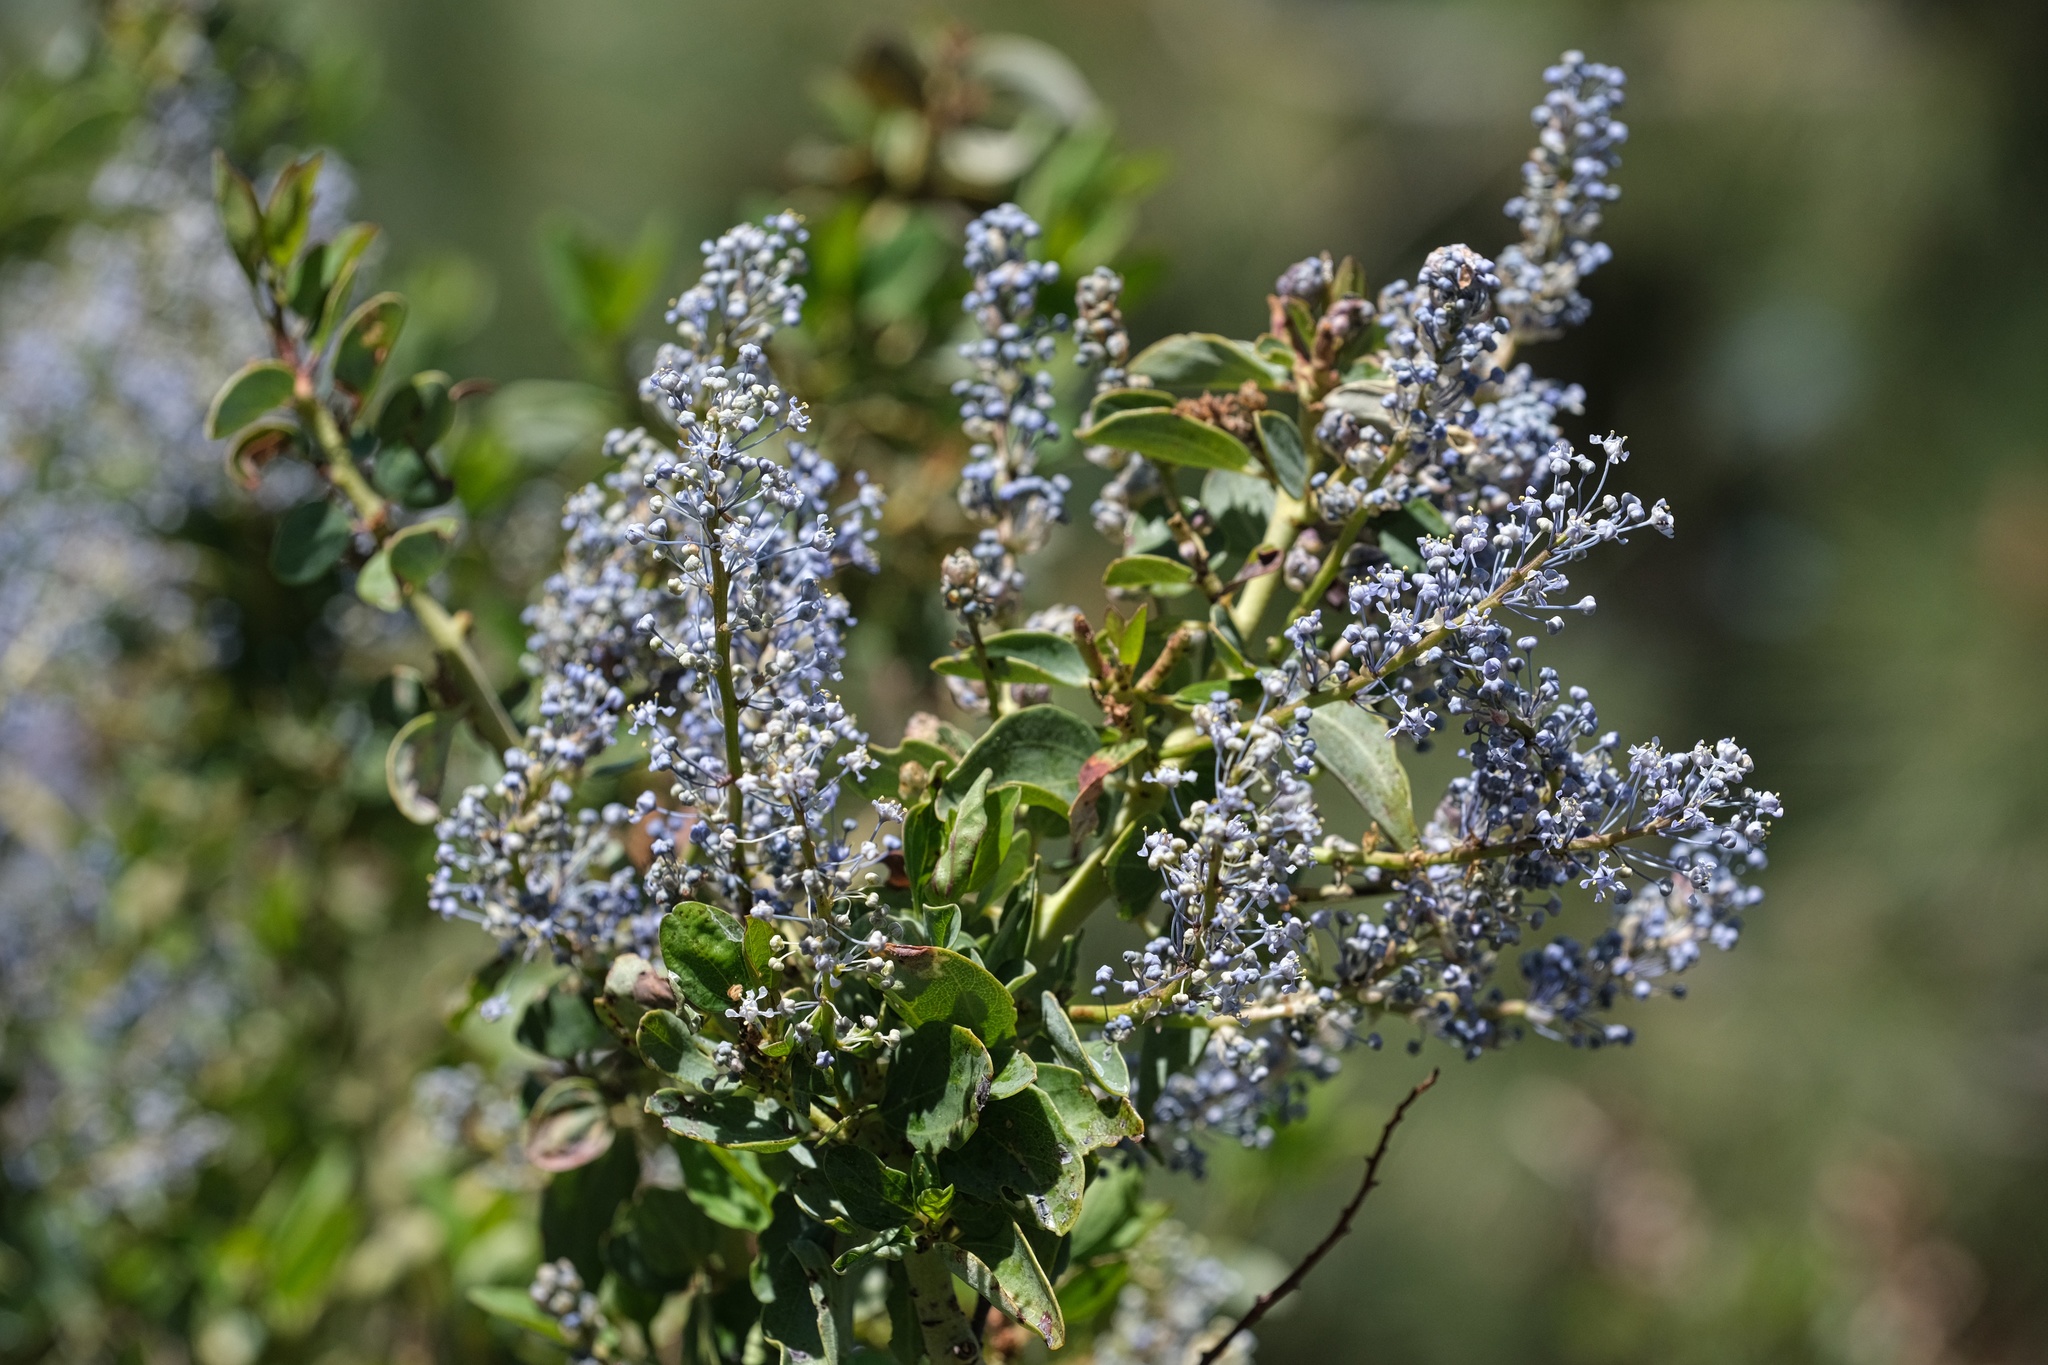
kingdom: Plantae
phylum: Tracheophyta
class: Magnoliopsida
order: Rosales
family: Rhamnaceae
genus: Ceanothus
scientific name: Ceanothus leucodermis
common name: Chaparral whitethorn
